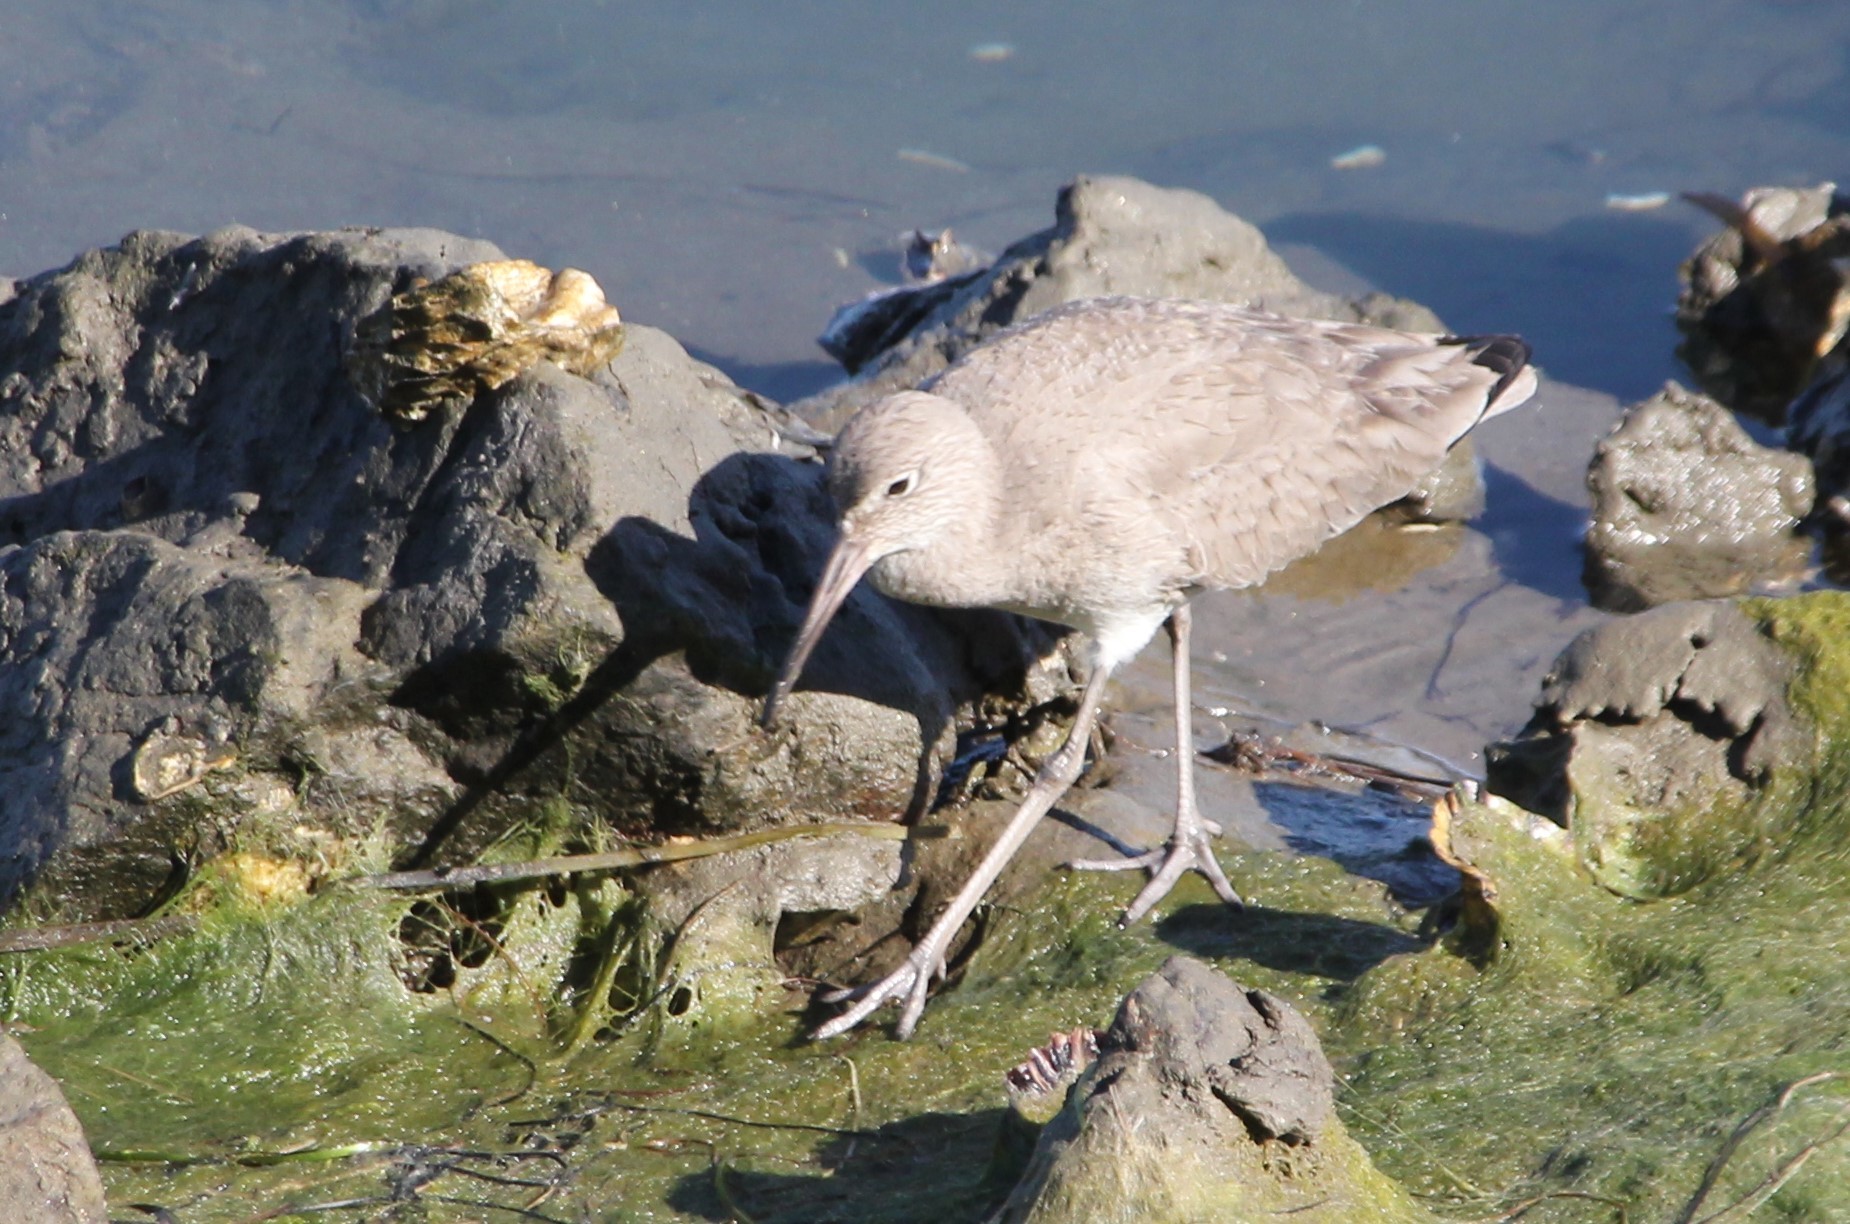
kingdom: Animalia
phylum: Chordata
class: Aves
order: Charadriiformes
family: Scolopacidae
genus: Tringa
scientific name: Tringa semipalmata
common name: Willet
